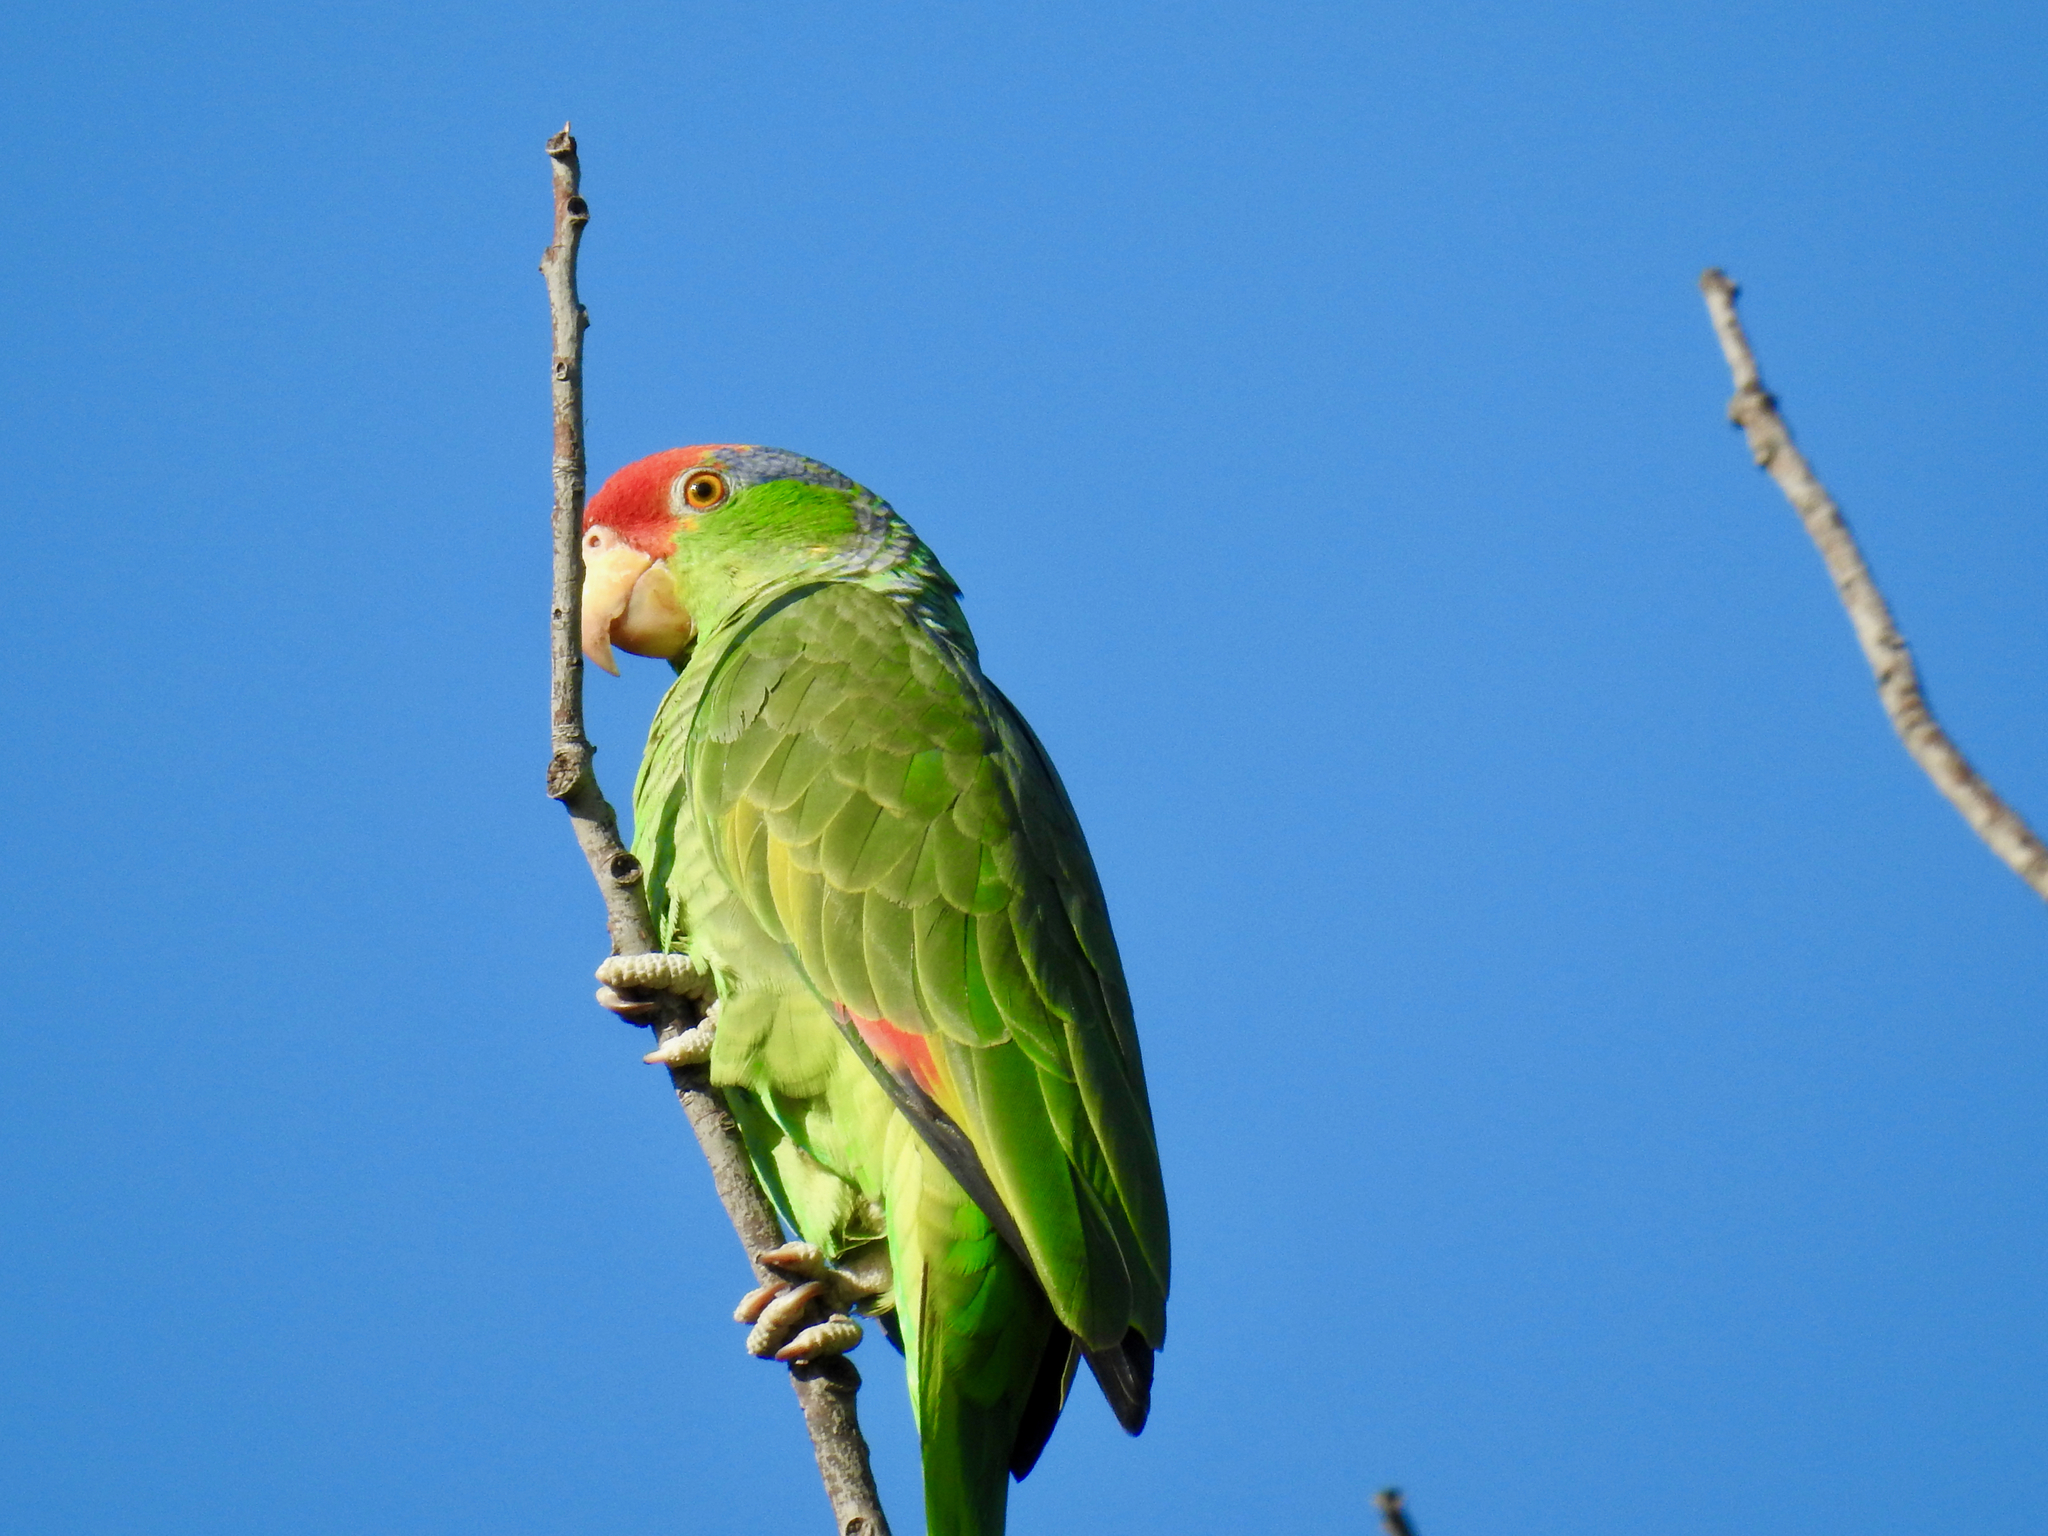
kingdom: Animalia
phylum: Chordata
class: Aves
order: Psittaciformes
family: Psittacidae
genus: Amazona
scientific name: Amazona viridigenalis
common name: Red-crowned amazon
